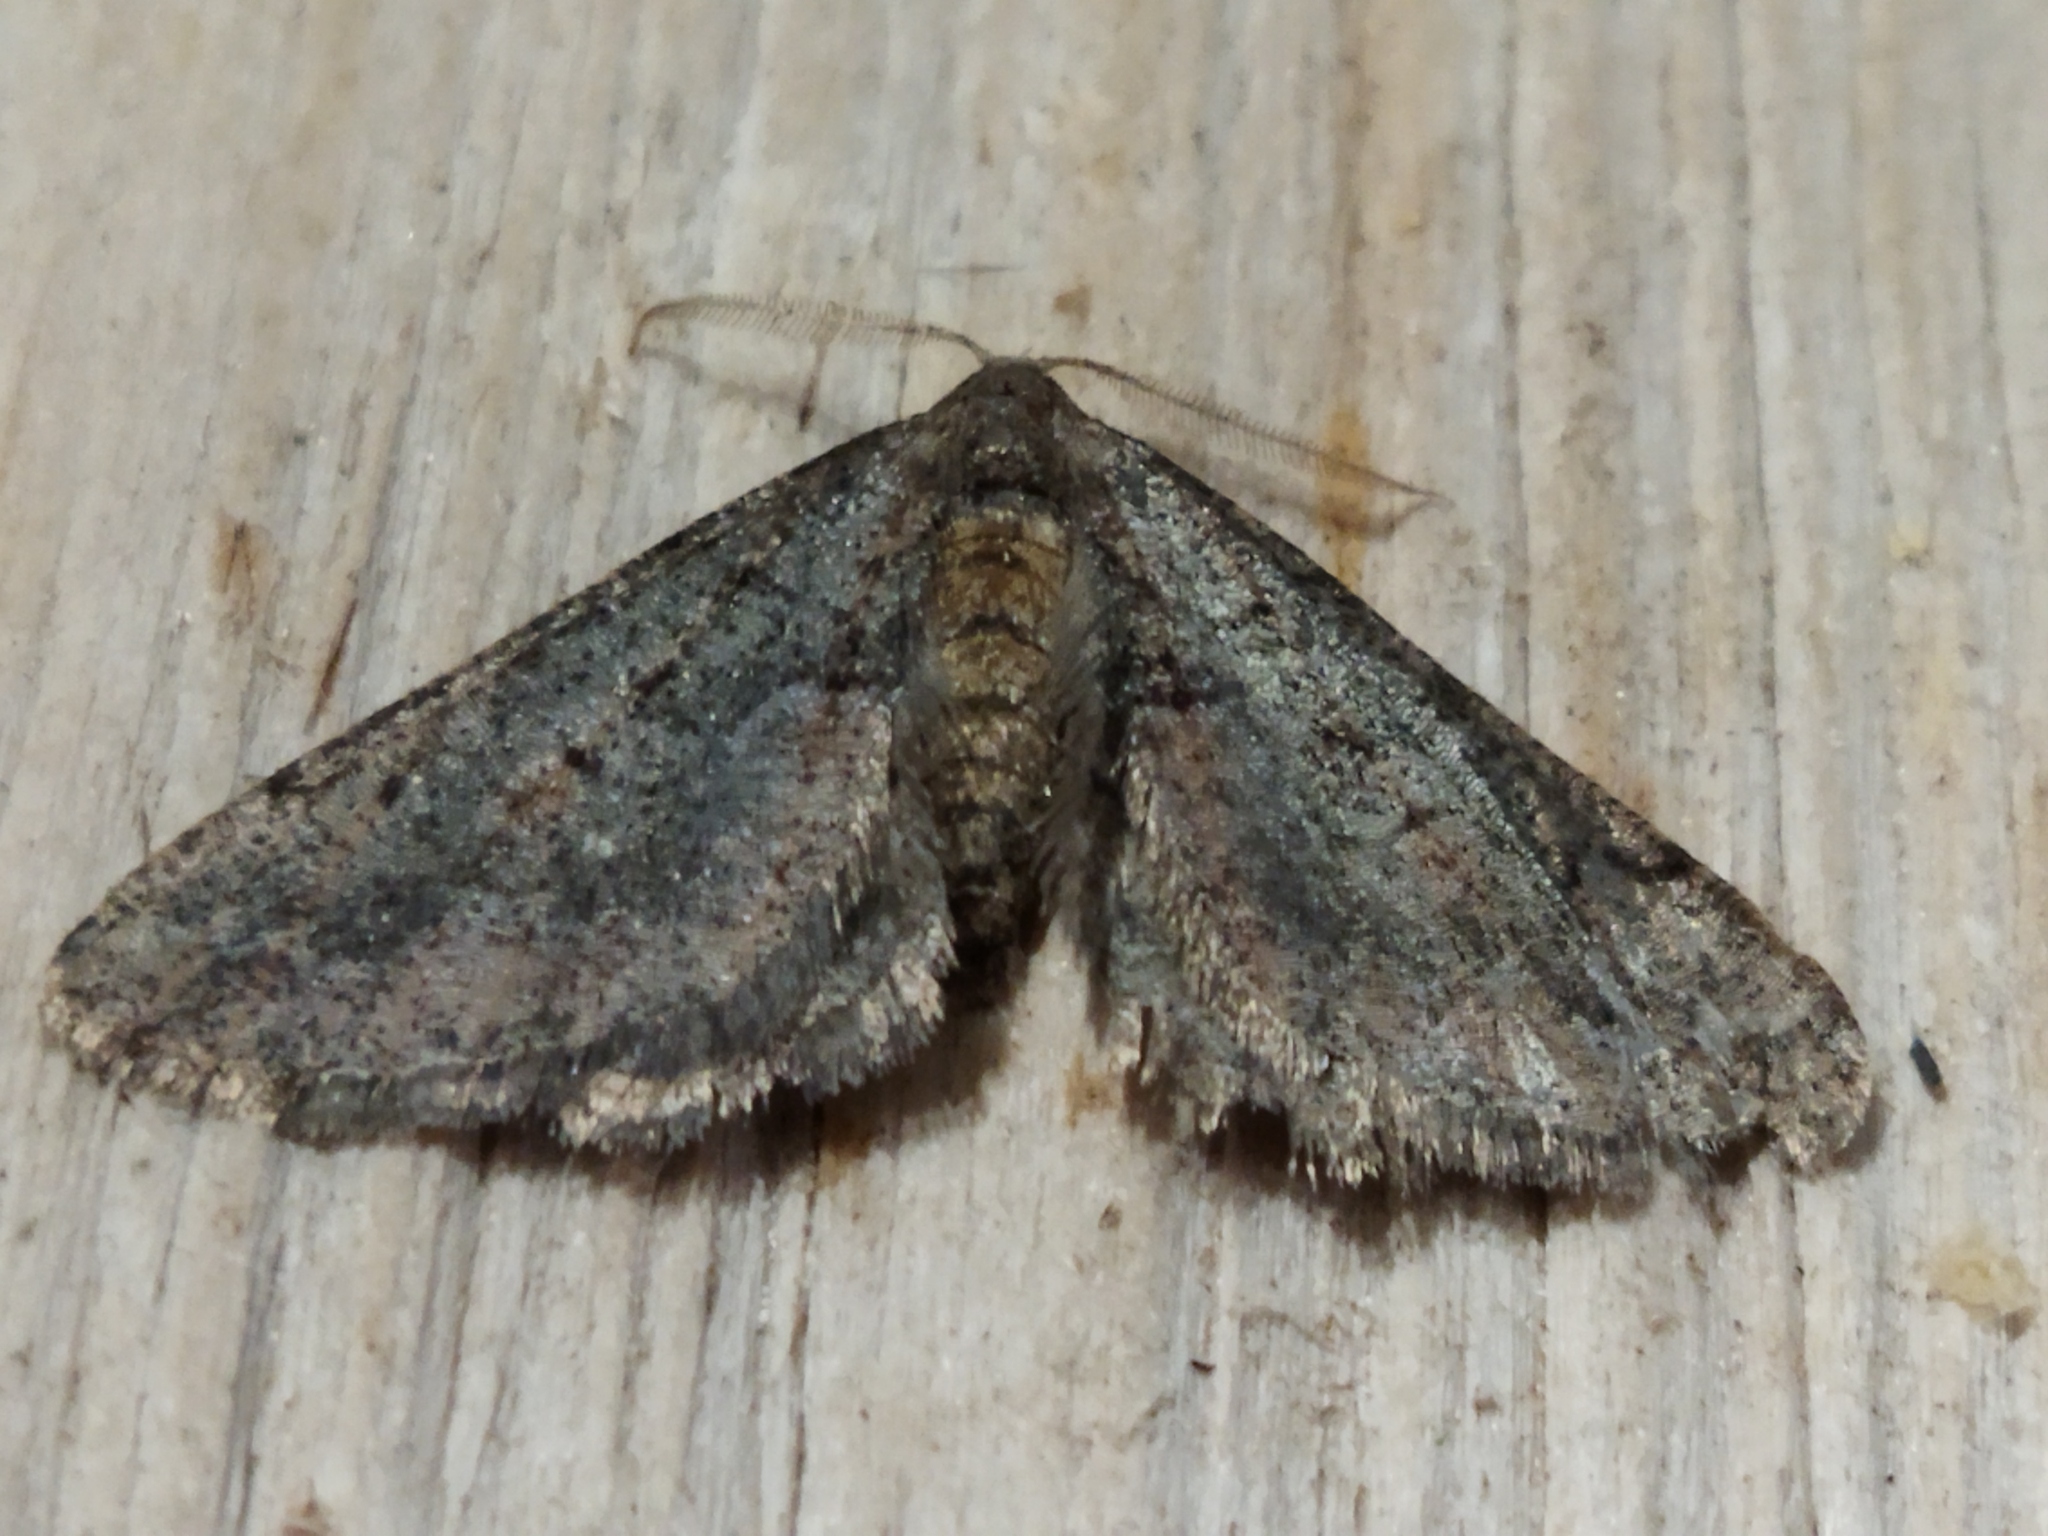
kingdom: Animalia
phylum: Arthropoda
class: Insecta
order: Lepidoptera
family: Geometridae
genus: Agriopis
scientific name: Agriopis bajaria
